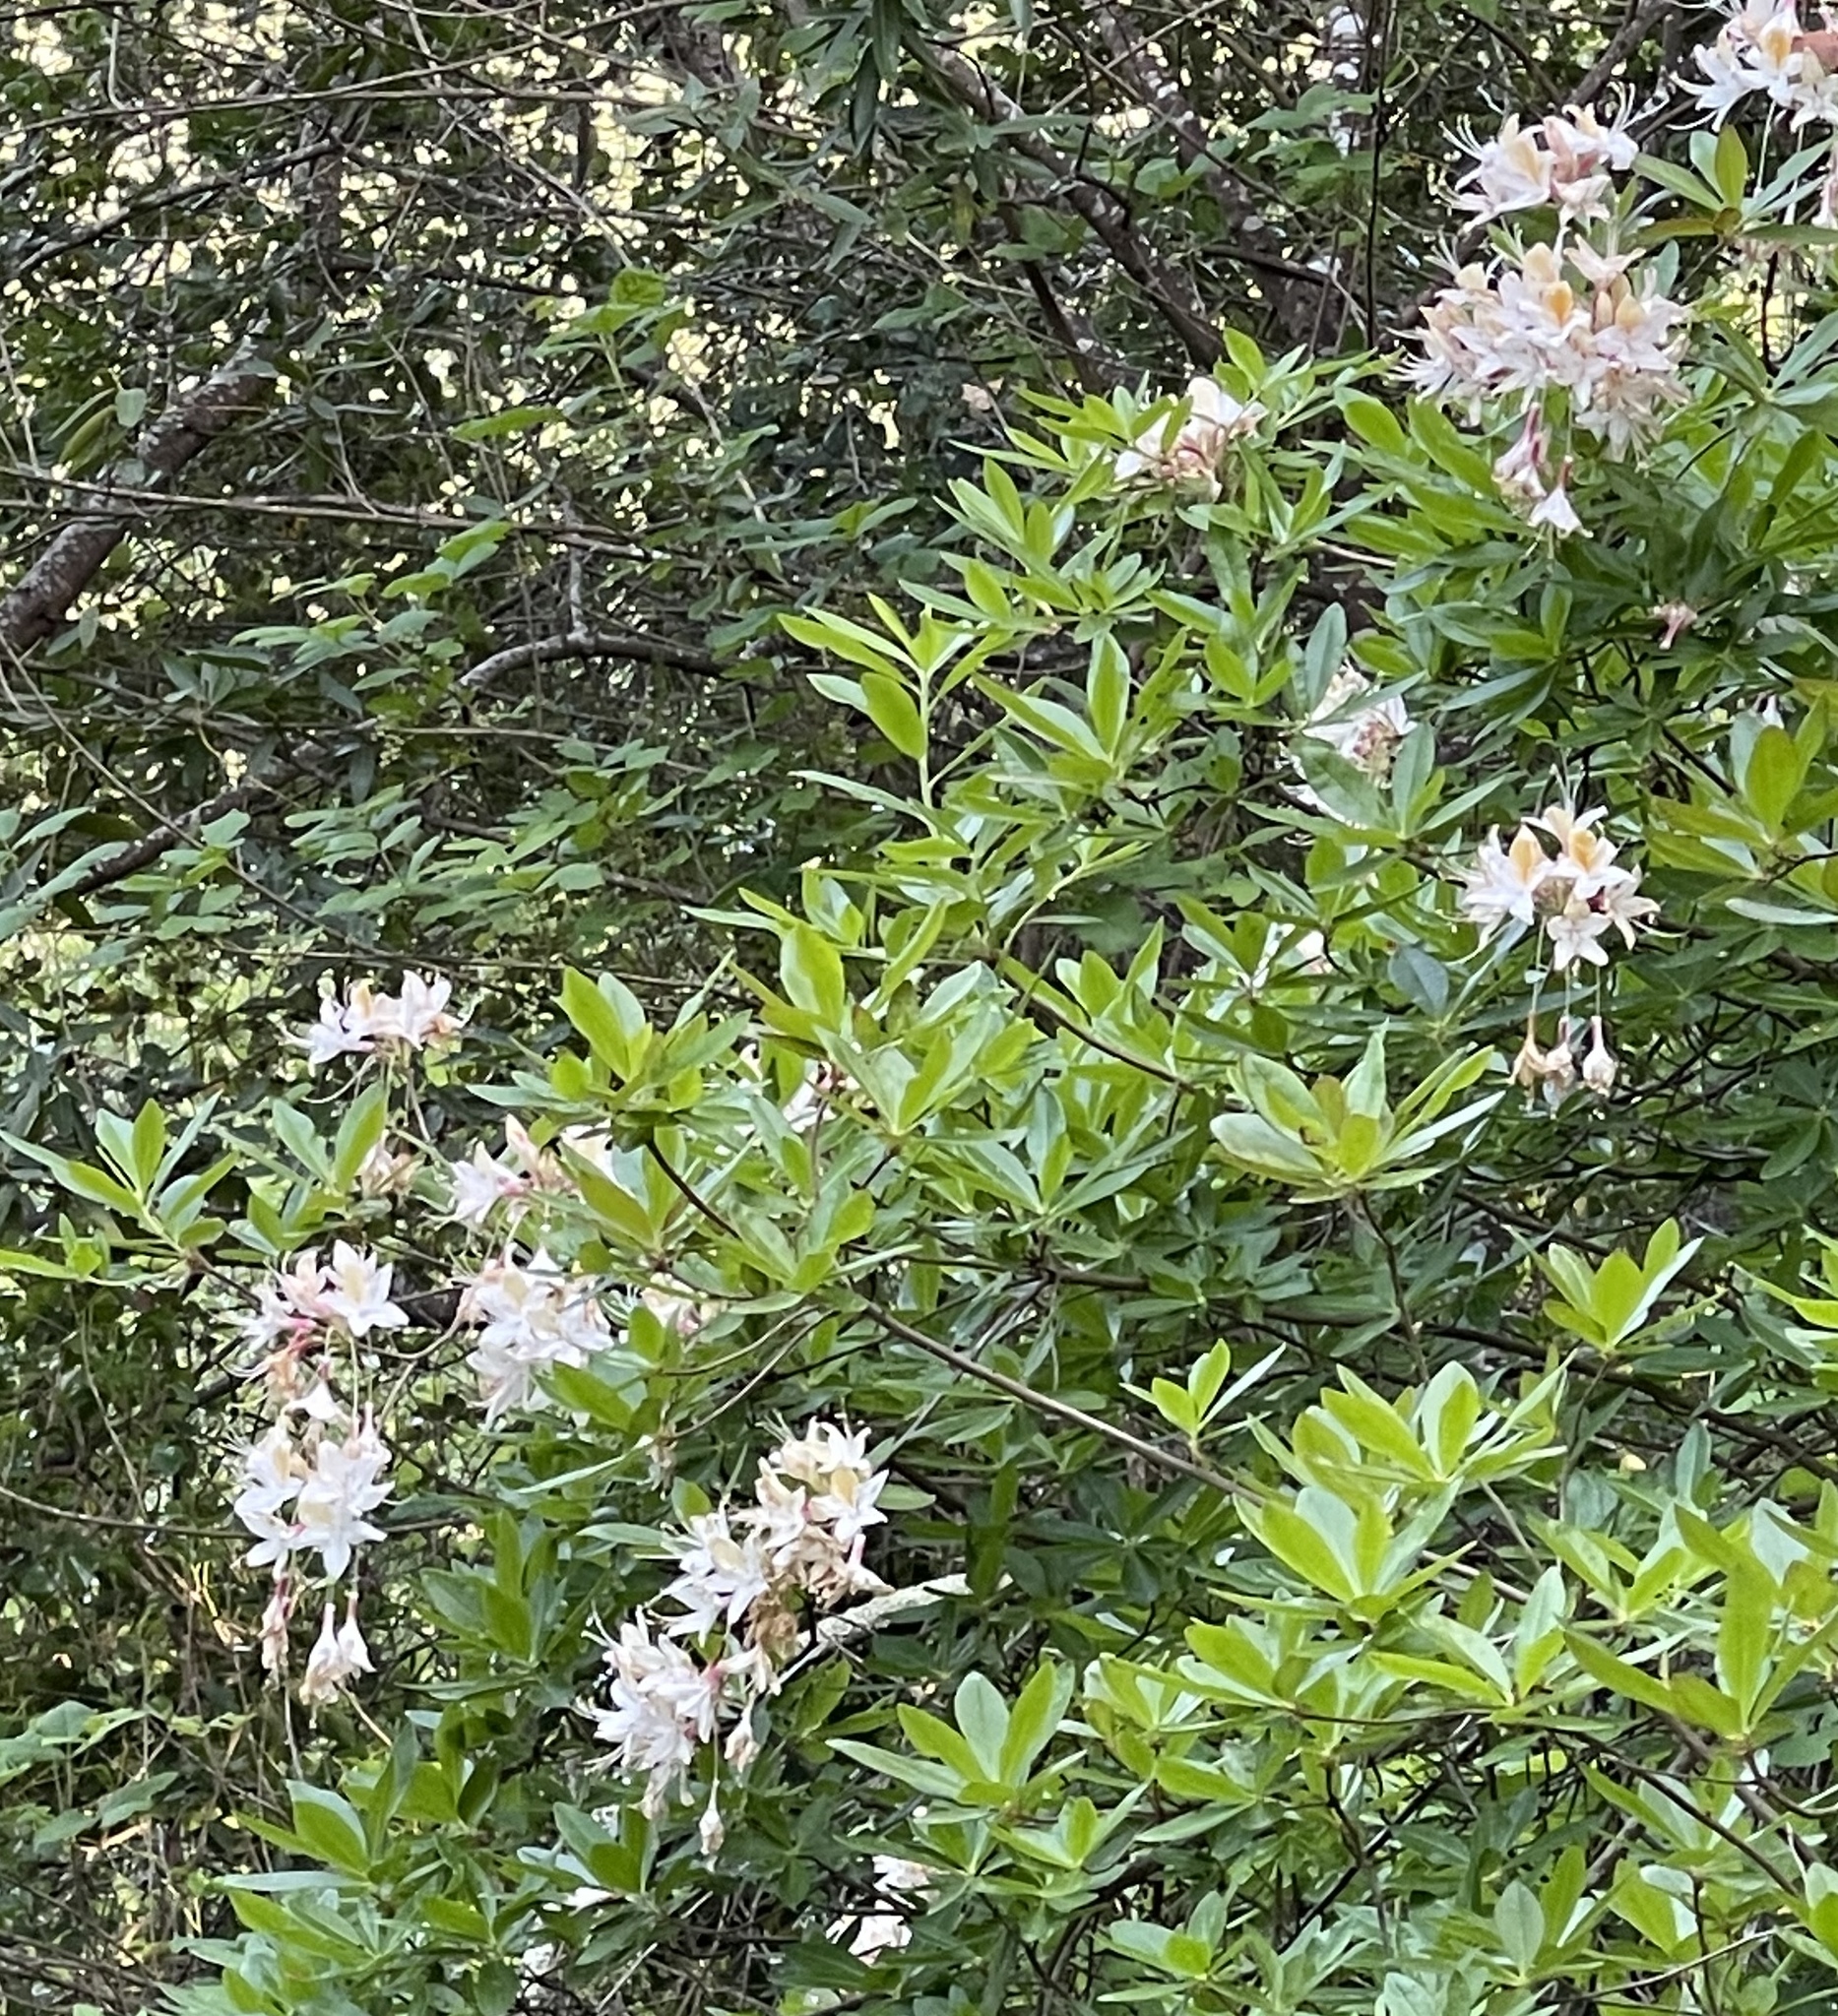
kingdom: Plantae
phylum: Tracheophyta
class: Magnoliopsida
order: Ericales
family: Ericaceae
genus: Rhododendron
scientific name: Rhododendron occidentale
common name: Western azalea
